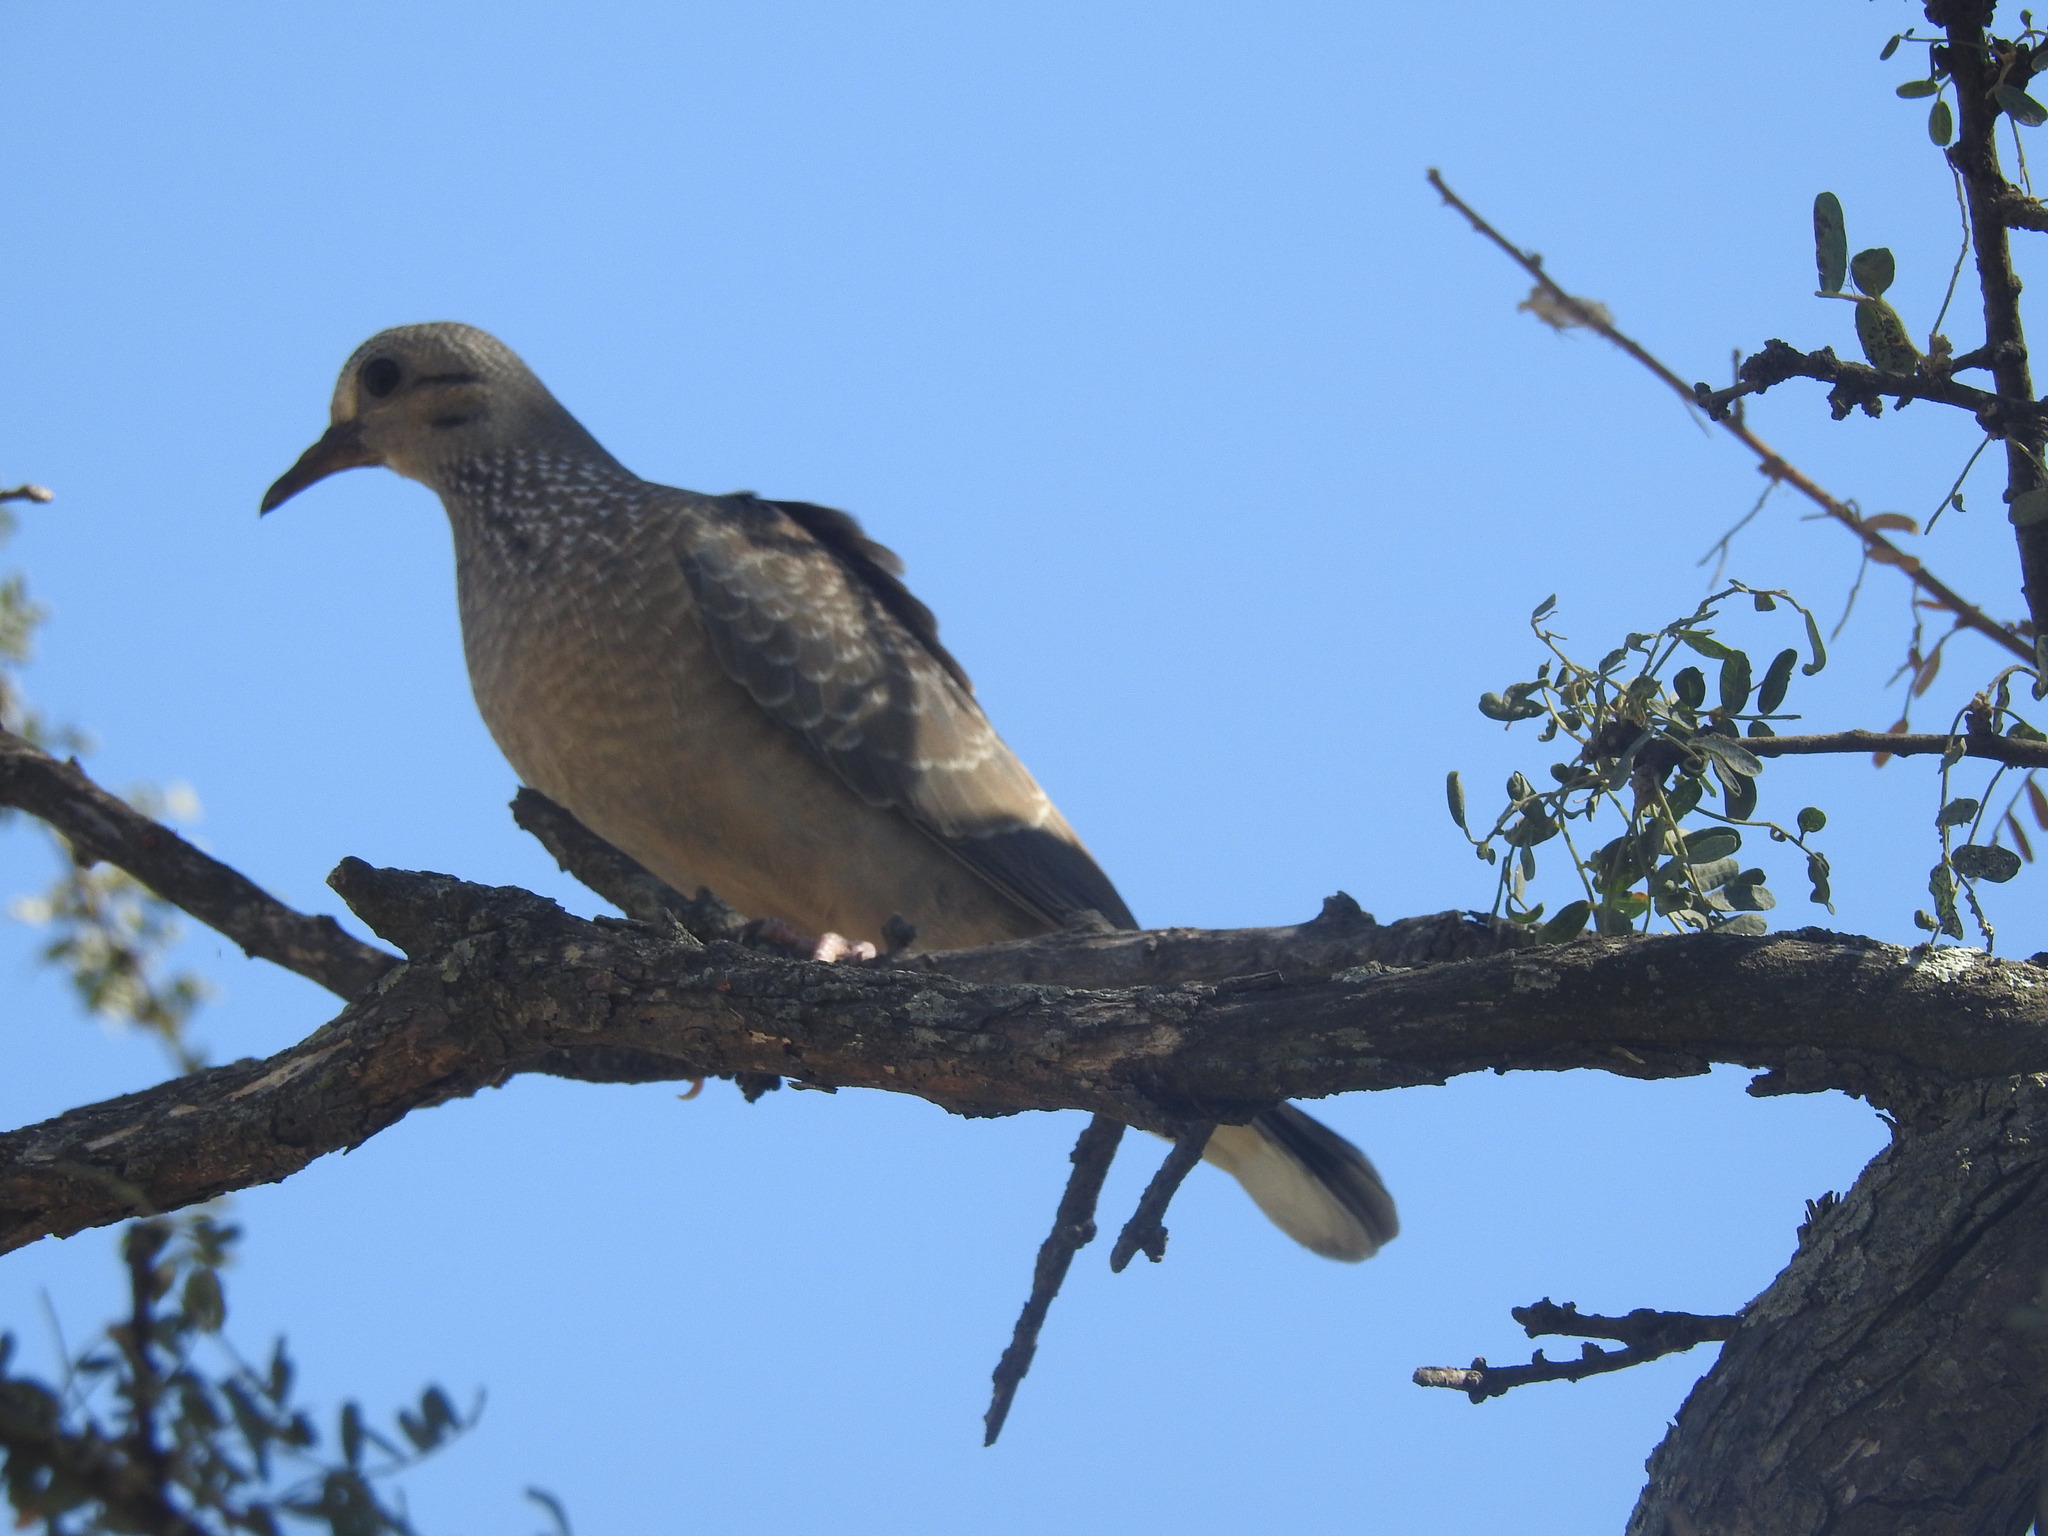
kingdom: Animalia
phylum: Chordata
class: Aves
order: Columbiformes
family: Columbidae
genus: Zenaida
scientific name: Zenaida auriculata
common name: Eared dove
